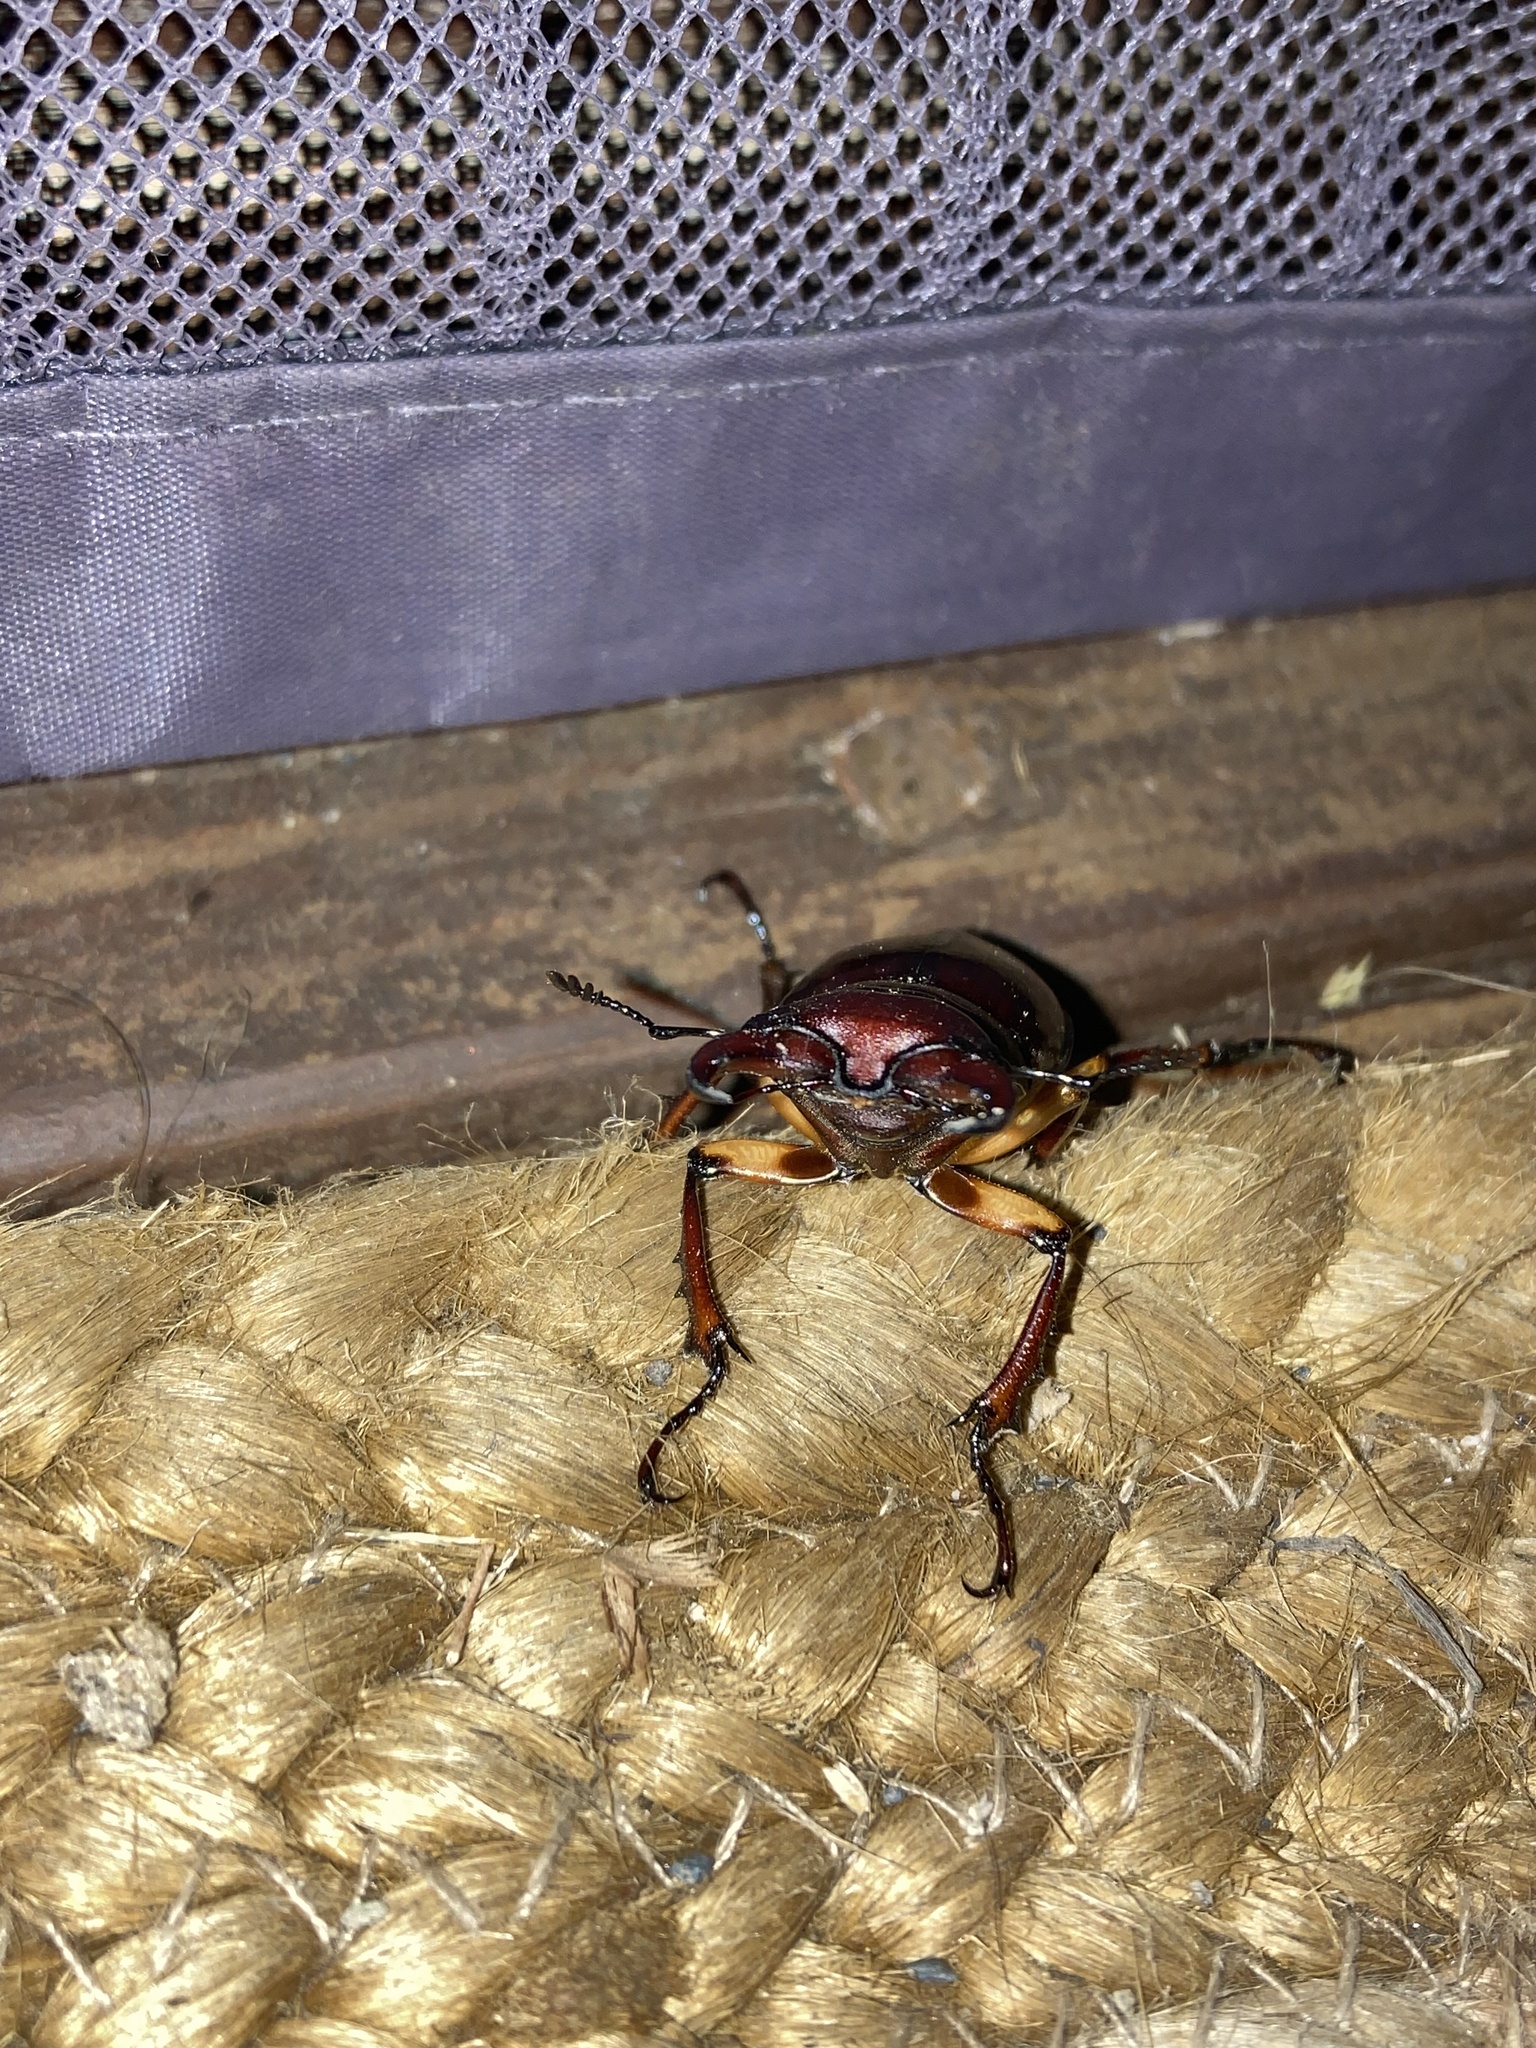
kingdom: Animalia
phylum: Arthropoda
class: Insecta
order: Coleoptera
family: Lucanidae
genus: Lucanus
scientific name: Lucanus capreolus
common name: Stag beetle
